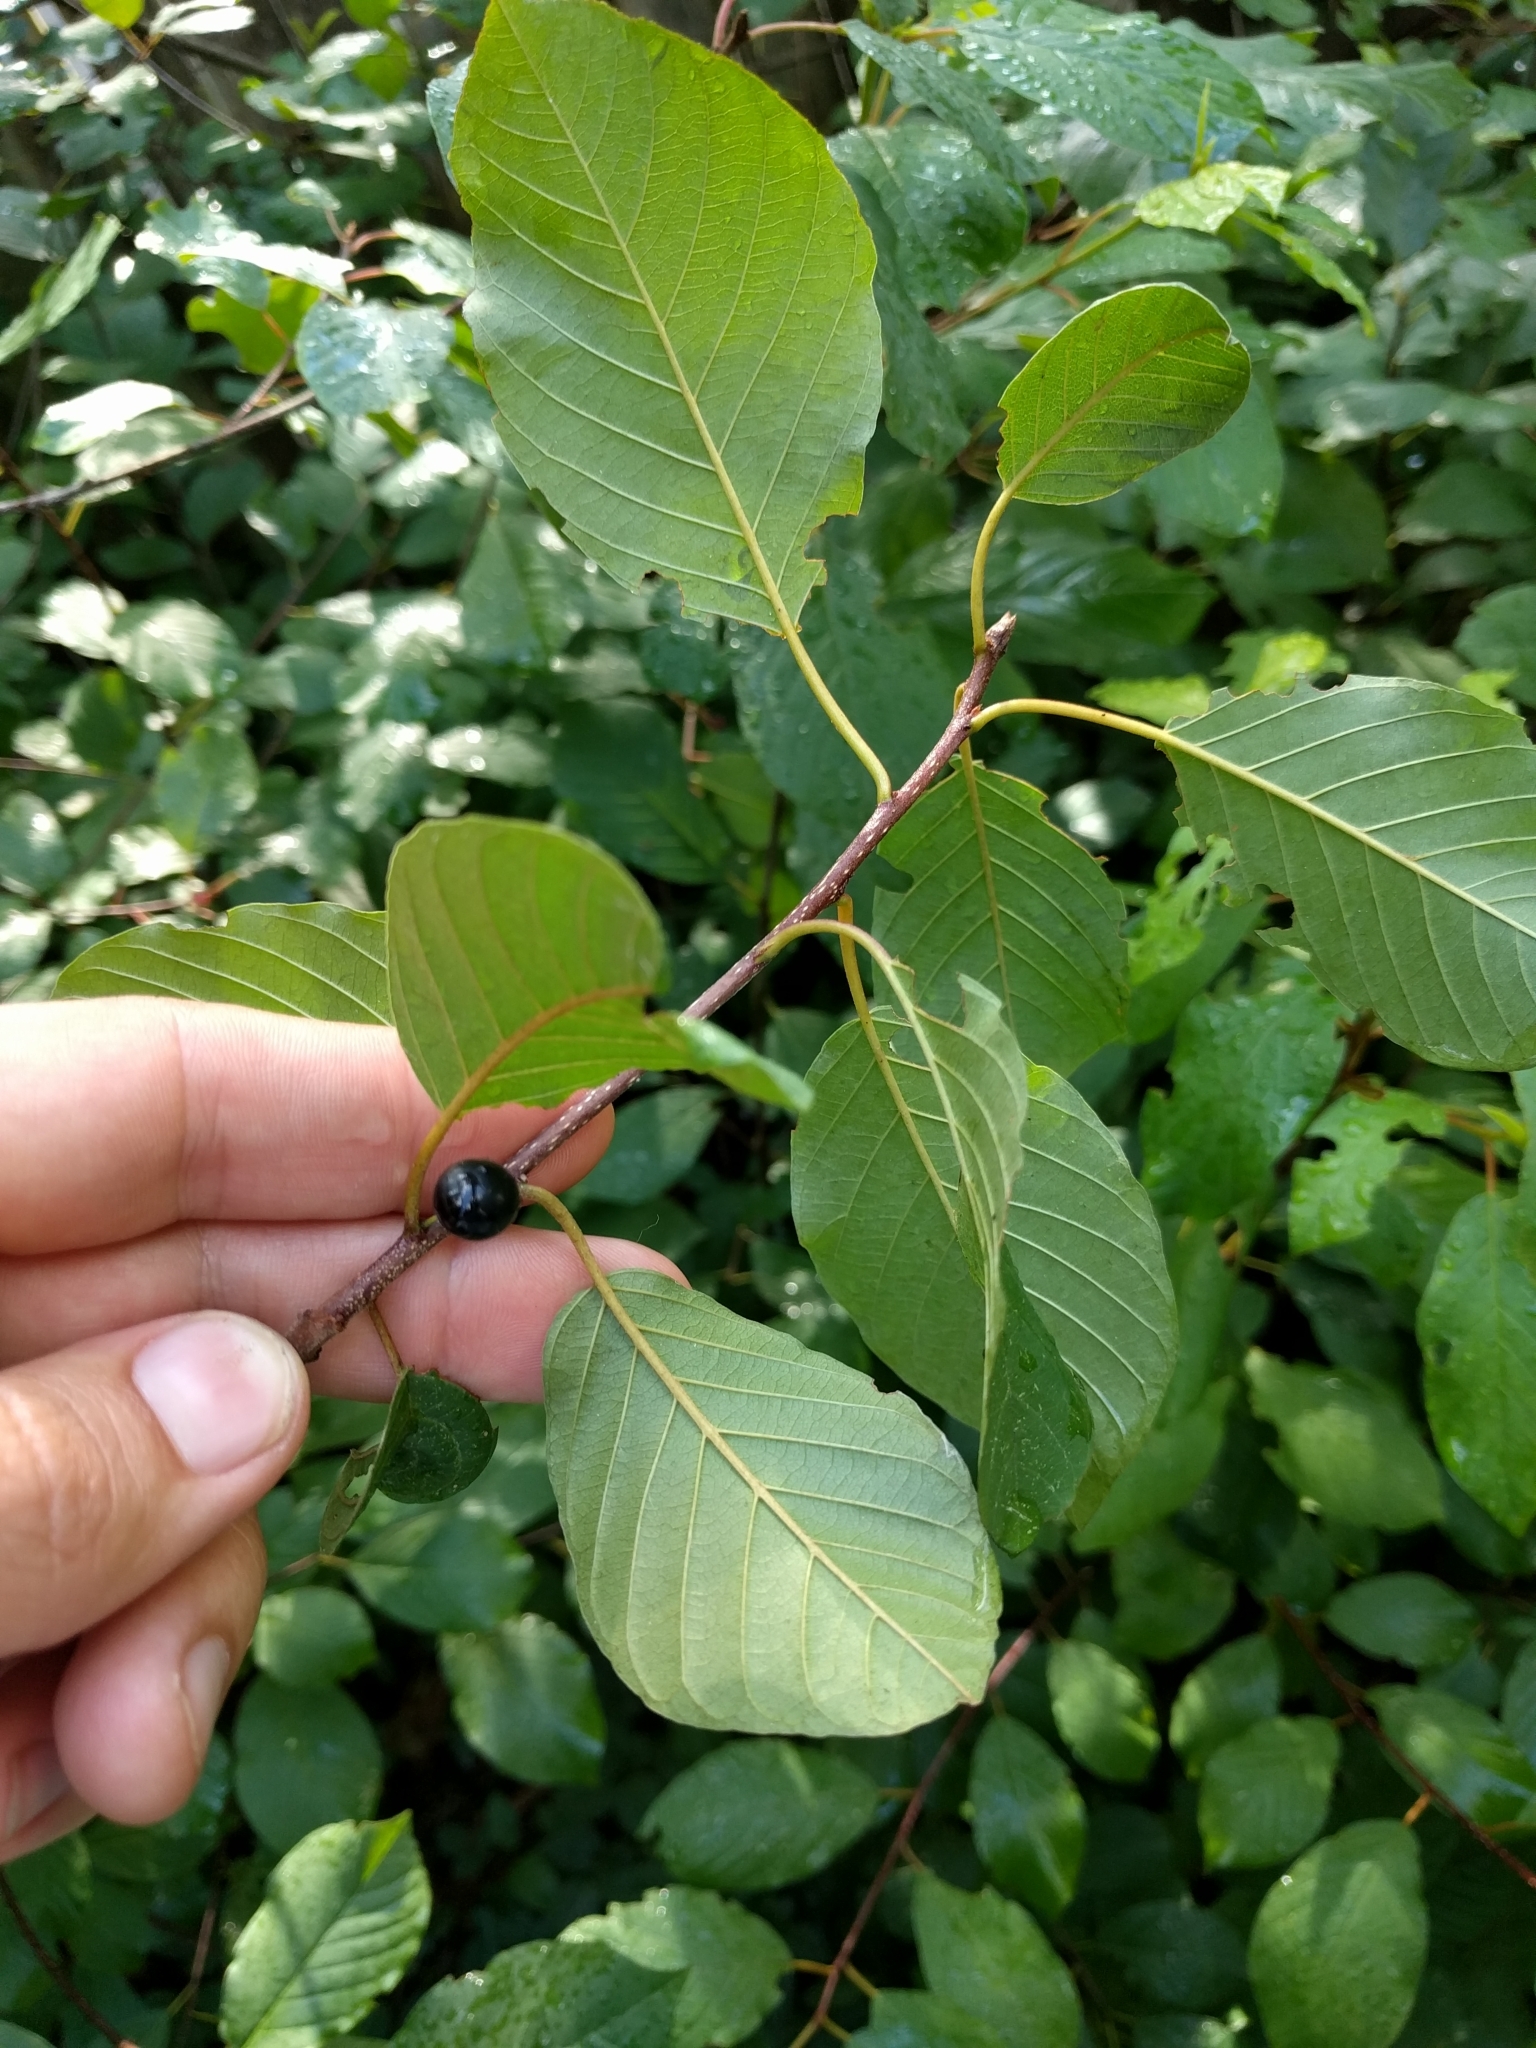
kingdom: Plantae
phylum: Tracheophyta
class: Magnoliopsida
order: Rosales
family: Rhamnaceae
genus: Frangula
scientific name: Frangula alnus
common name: Alder buckthorn
